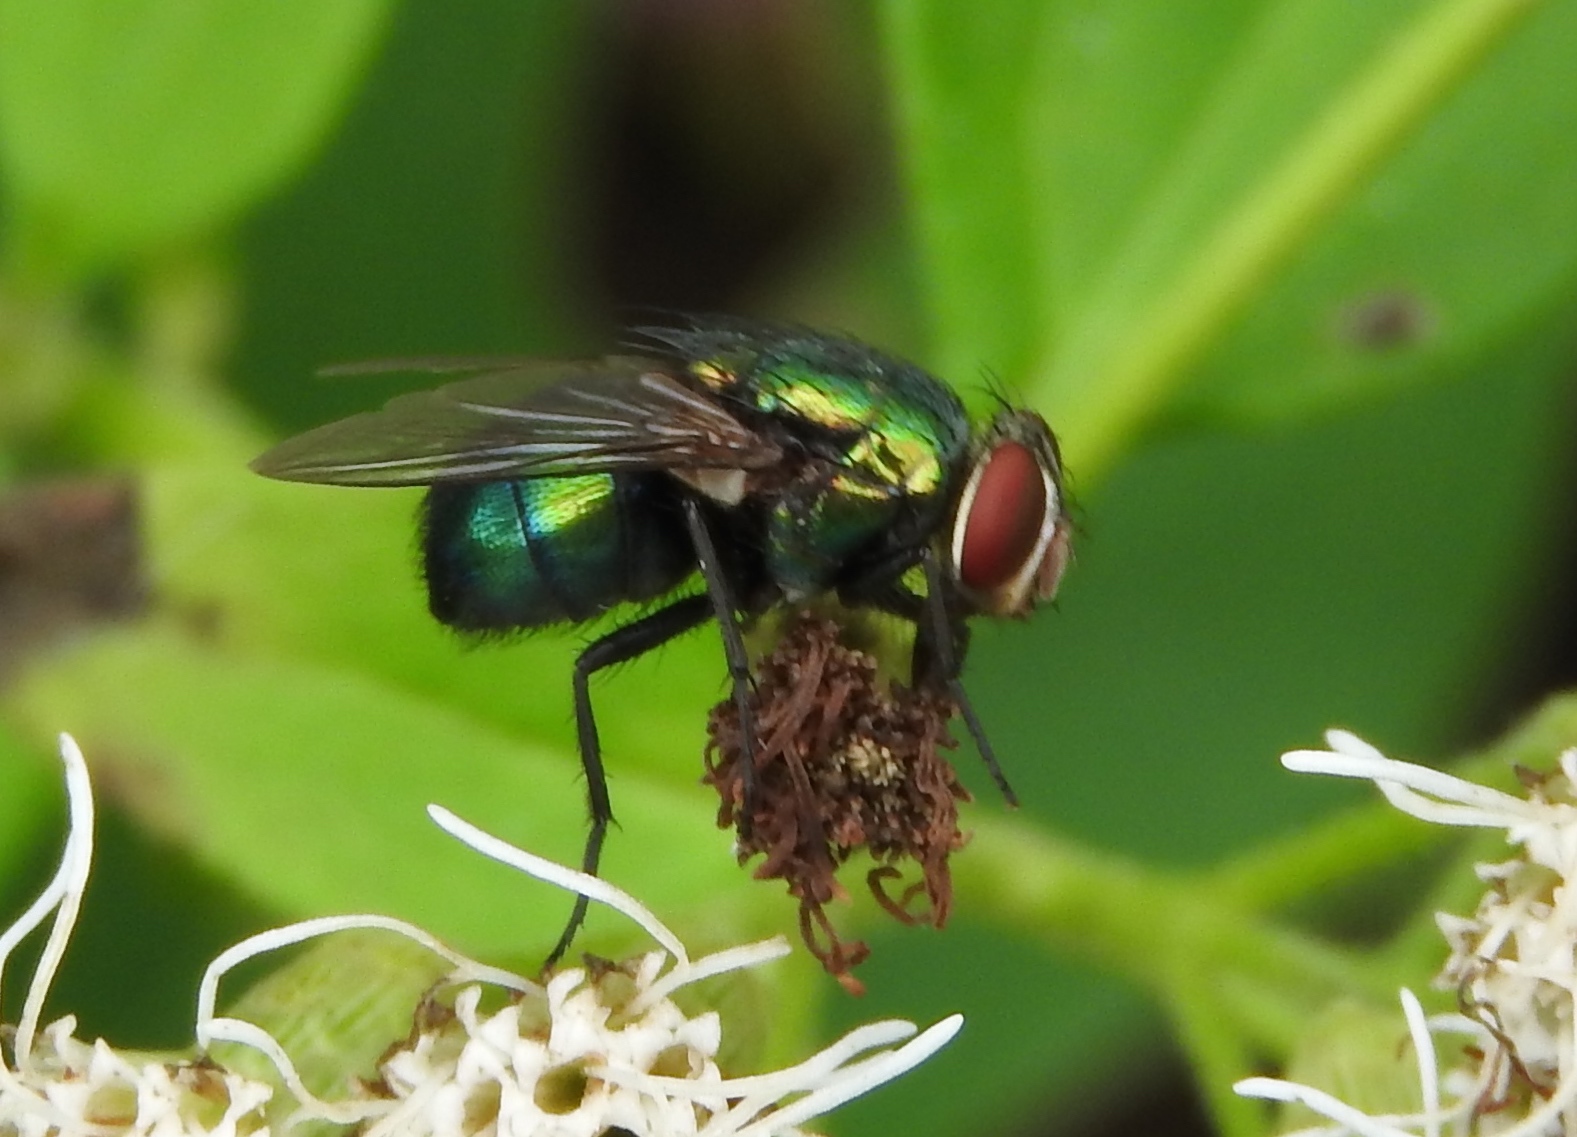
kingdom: Animalia
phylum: Arthropoda
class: Insecta
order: Diptera
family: Calliphoridae
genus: Lucilia
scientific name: Lucilia
